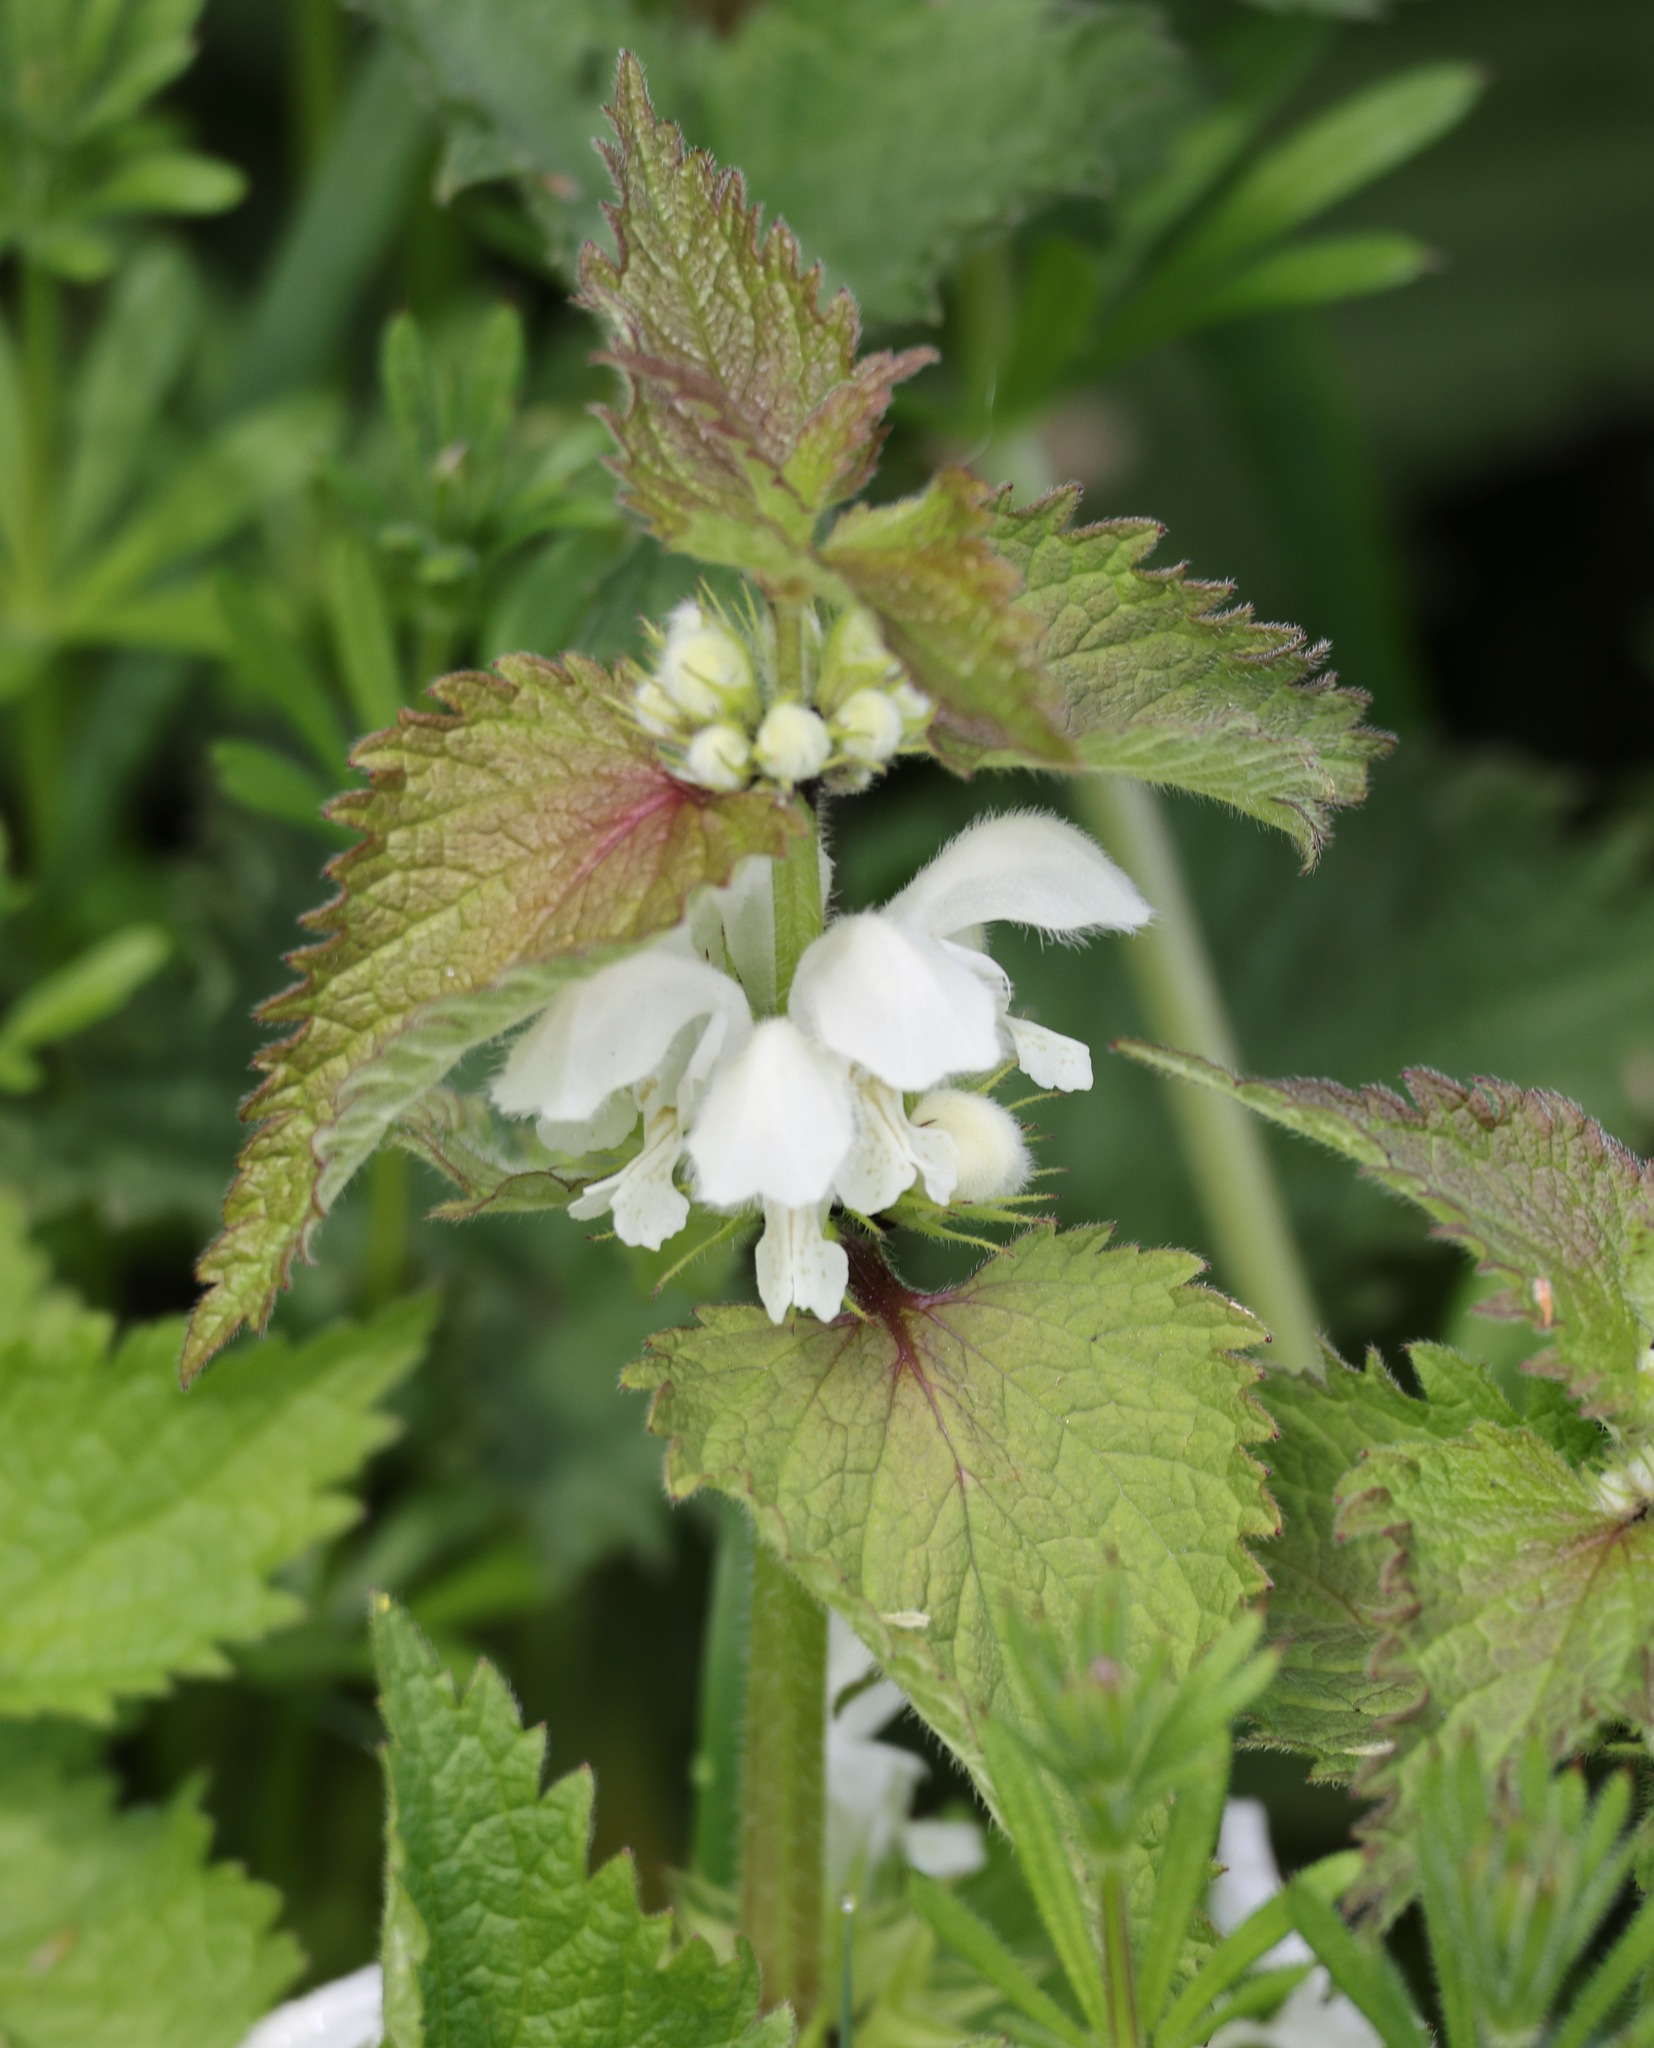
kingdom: Plantae
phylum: Tracheophyta
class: Magnoliopsida
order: Lamiales
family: Lamiaceae
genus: Lamium
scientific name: Lamium album
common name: White dead-nettle
